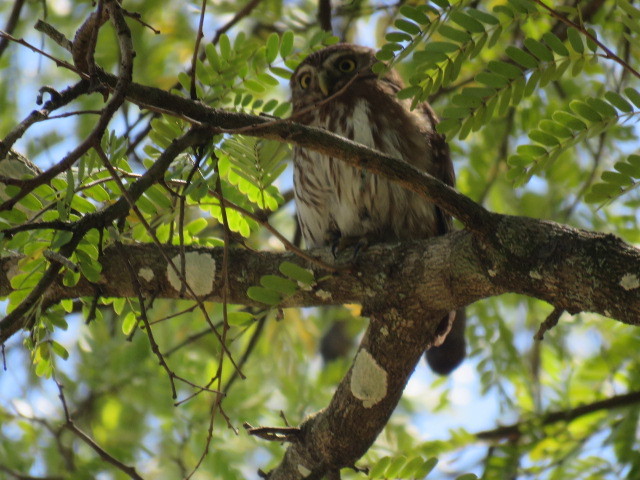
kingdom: Animalia
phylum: Chordata
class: Aves
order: Strigiformes
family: Strigidae
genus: Glaucidium
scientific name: Glaucidium brasilianum
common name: Ferruginous pygmy-owl
